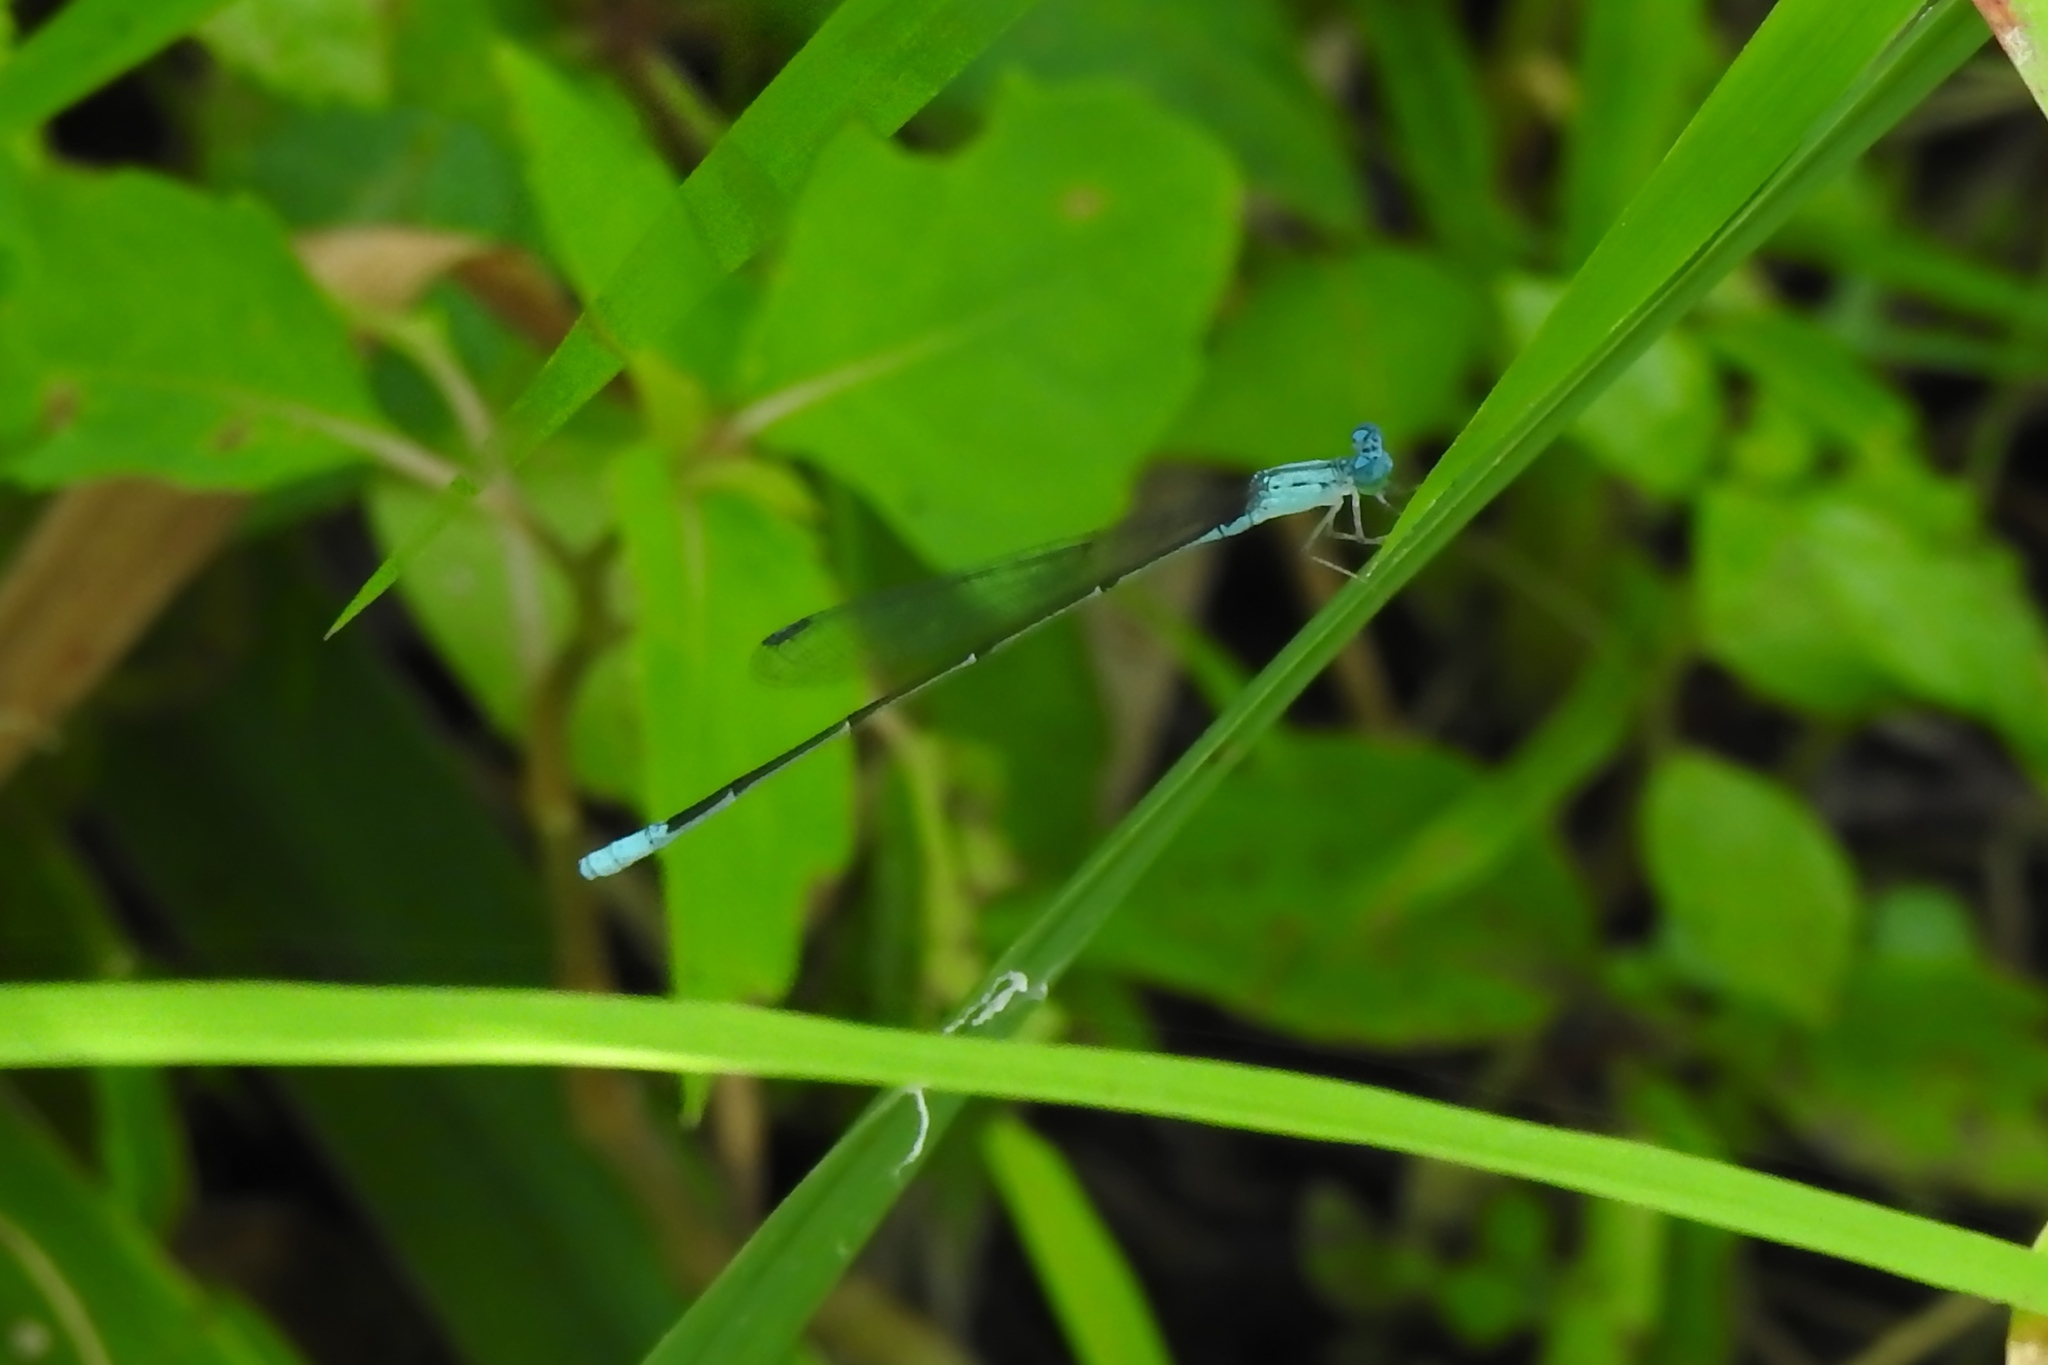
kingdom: Animalia
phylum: Arthropoda
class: Insecta
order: Odonata
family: Coenagrionidae
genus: Enallagma
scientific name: Enallagma daeckii
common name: Attenuated bluet
